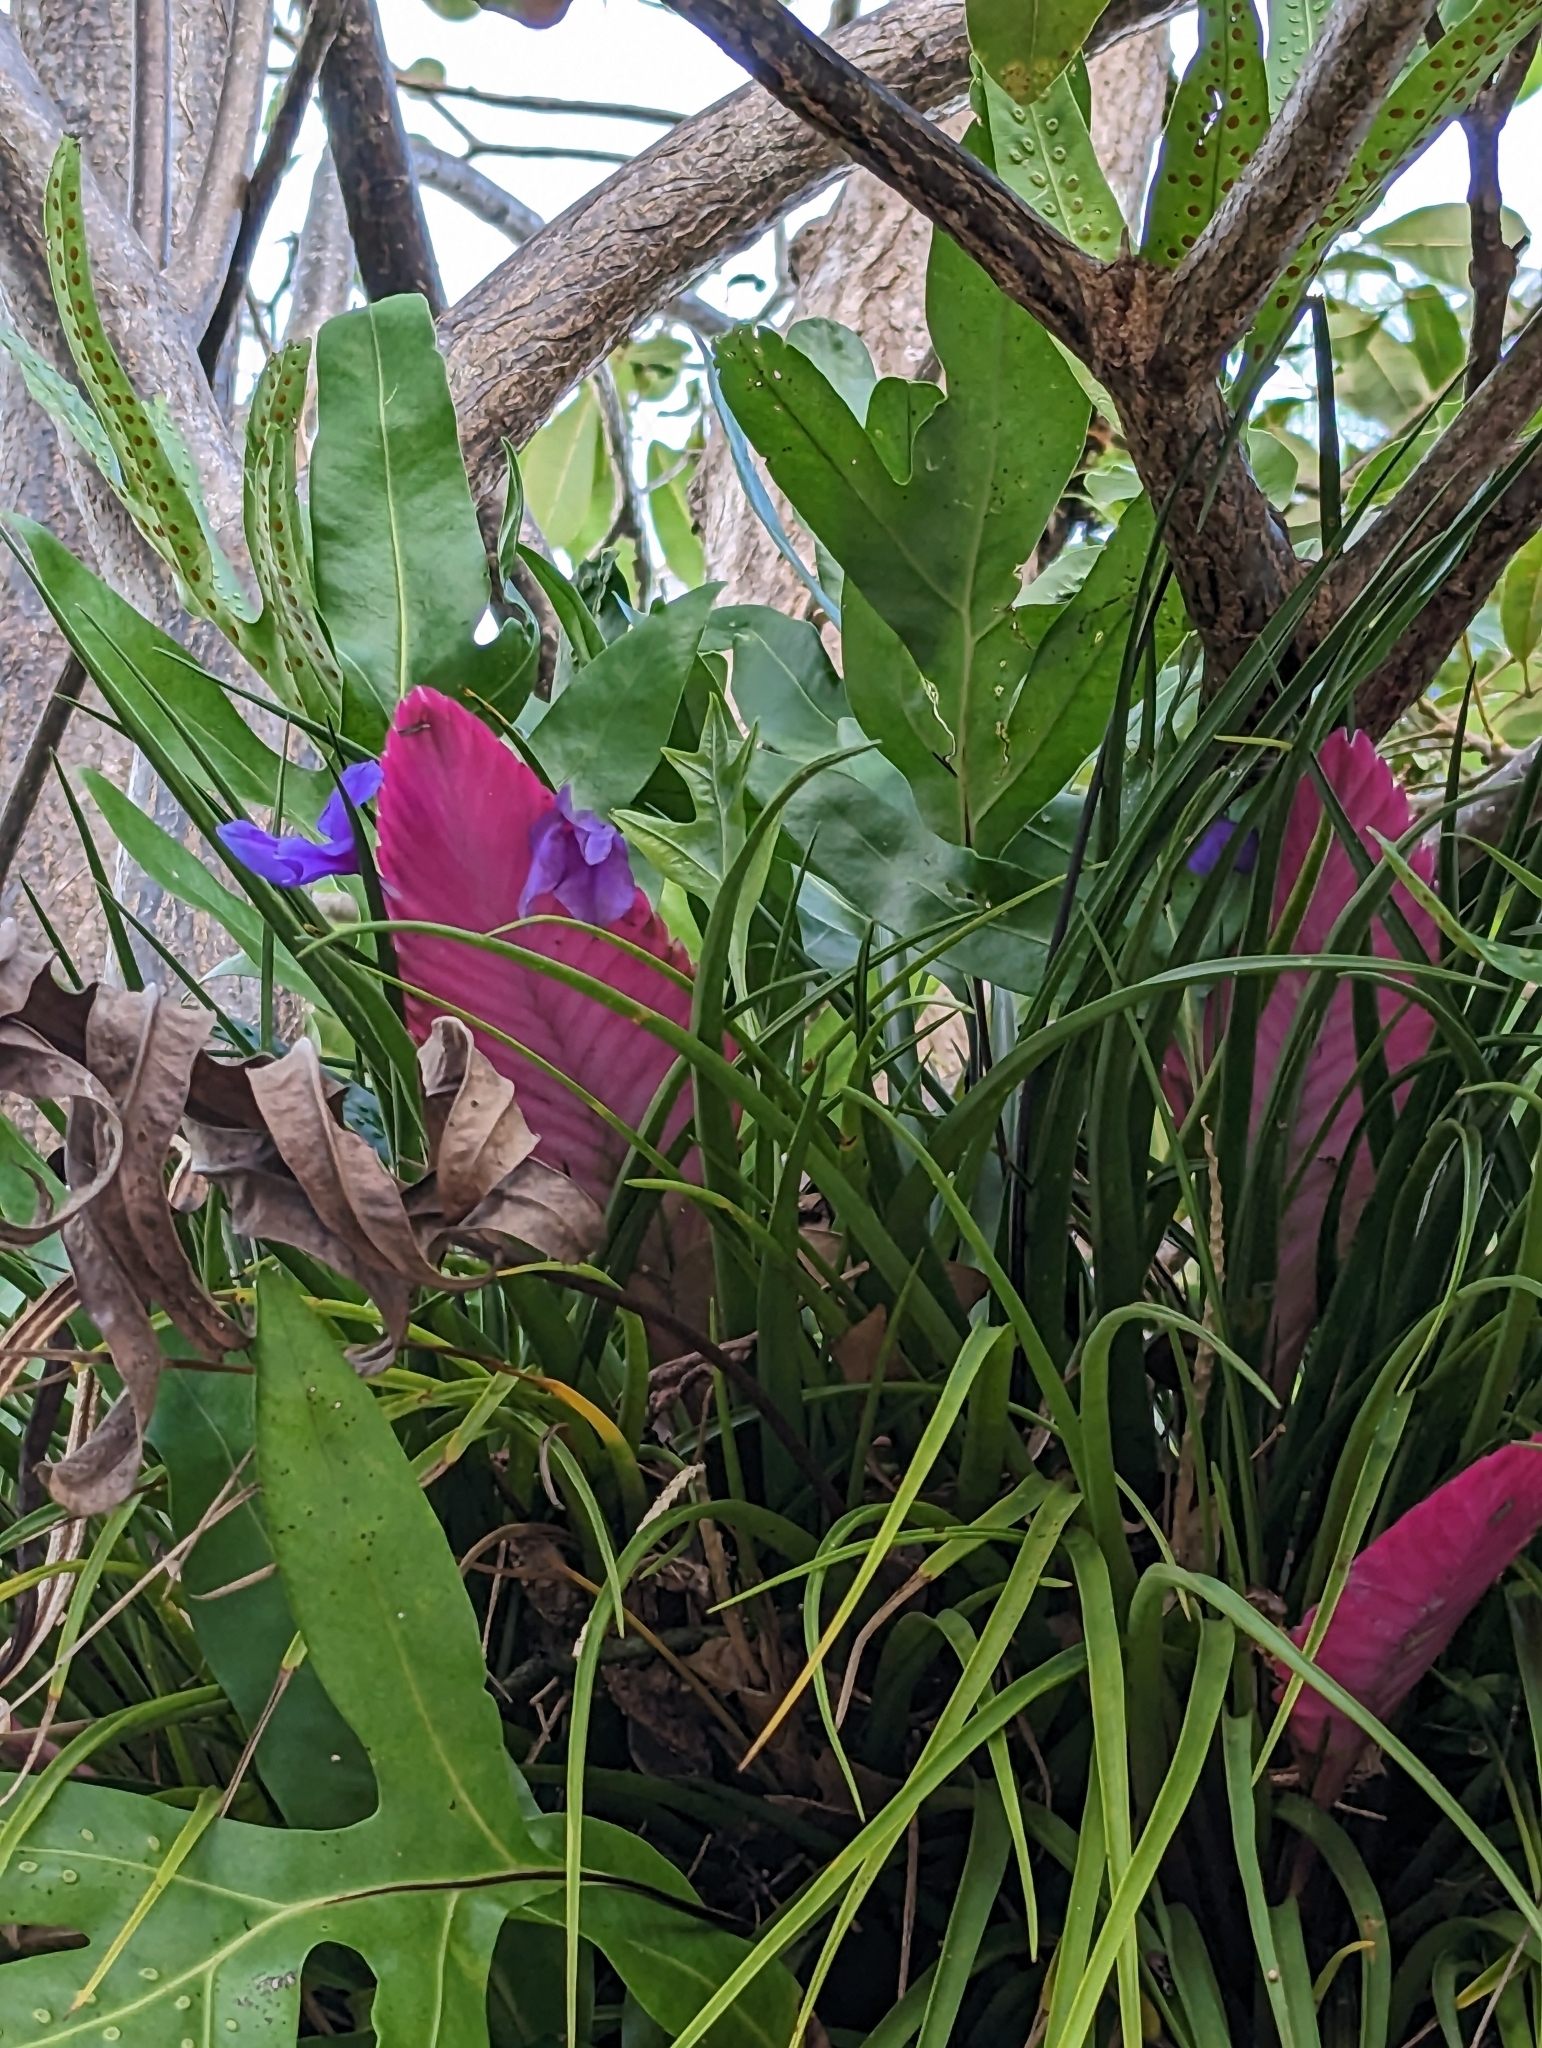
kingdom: Plantae
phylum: Tracheophyta
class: Liliopsida
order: Poales
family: Bromeliaceae
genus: Wallisia
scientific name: Wallisia cyanea
